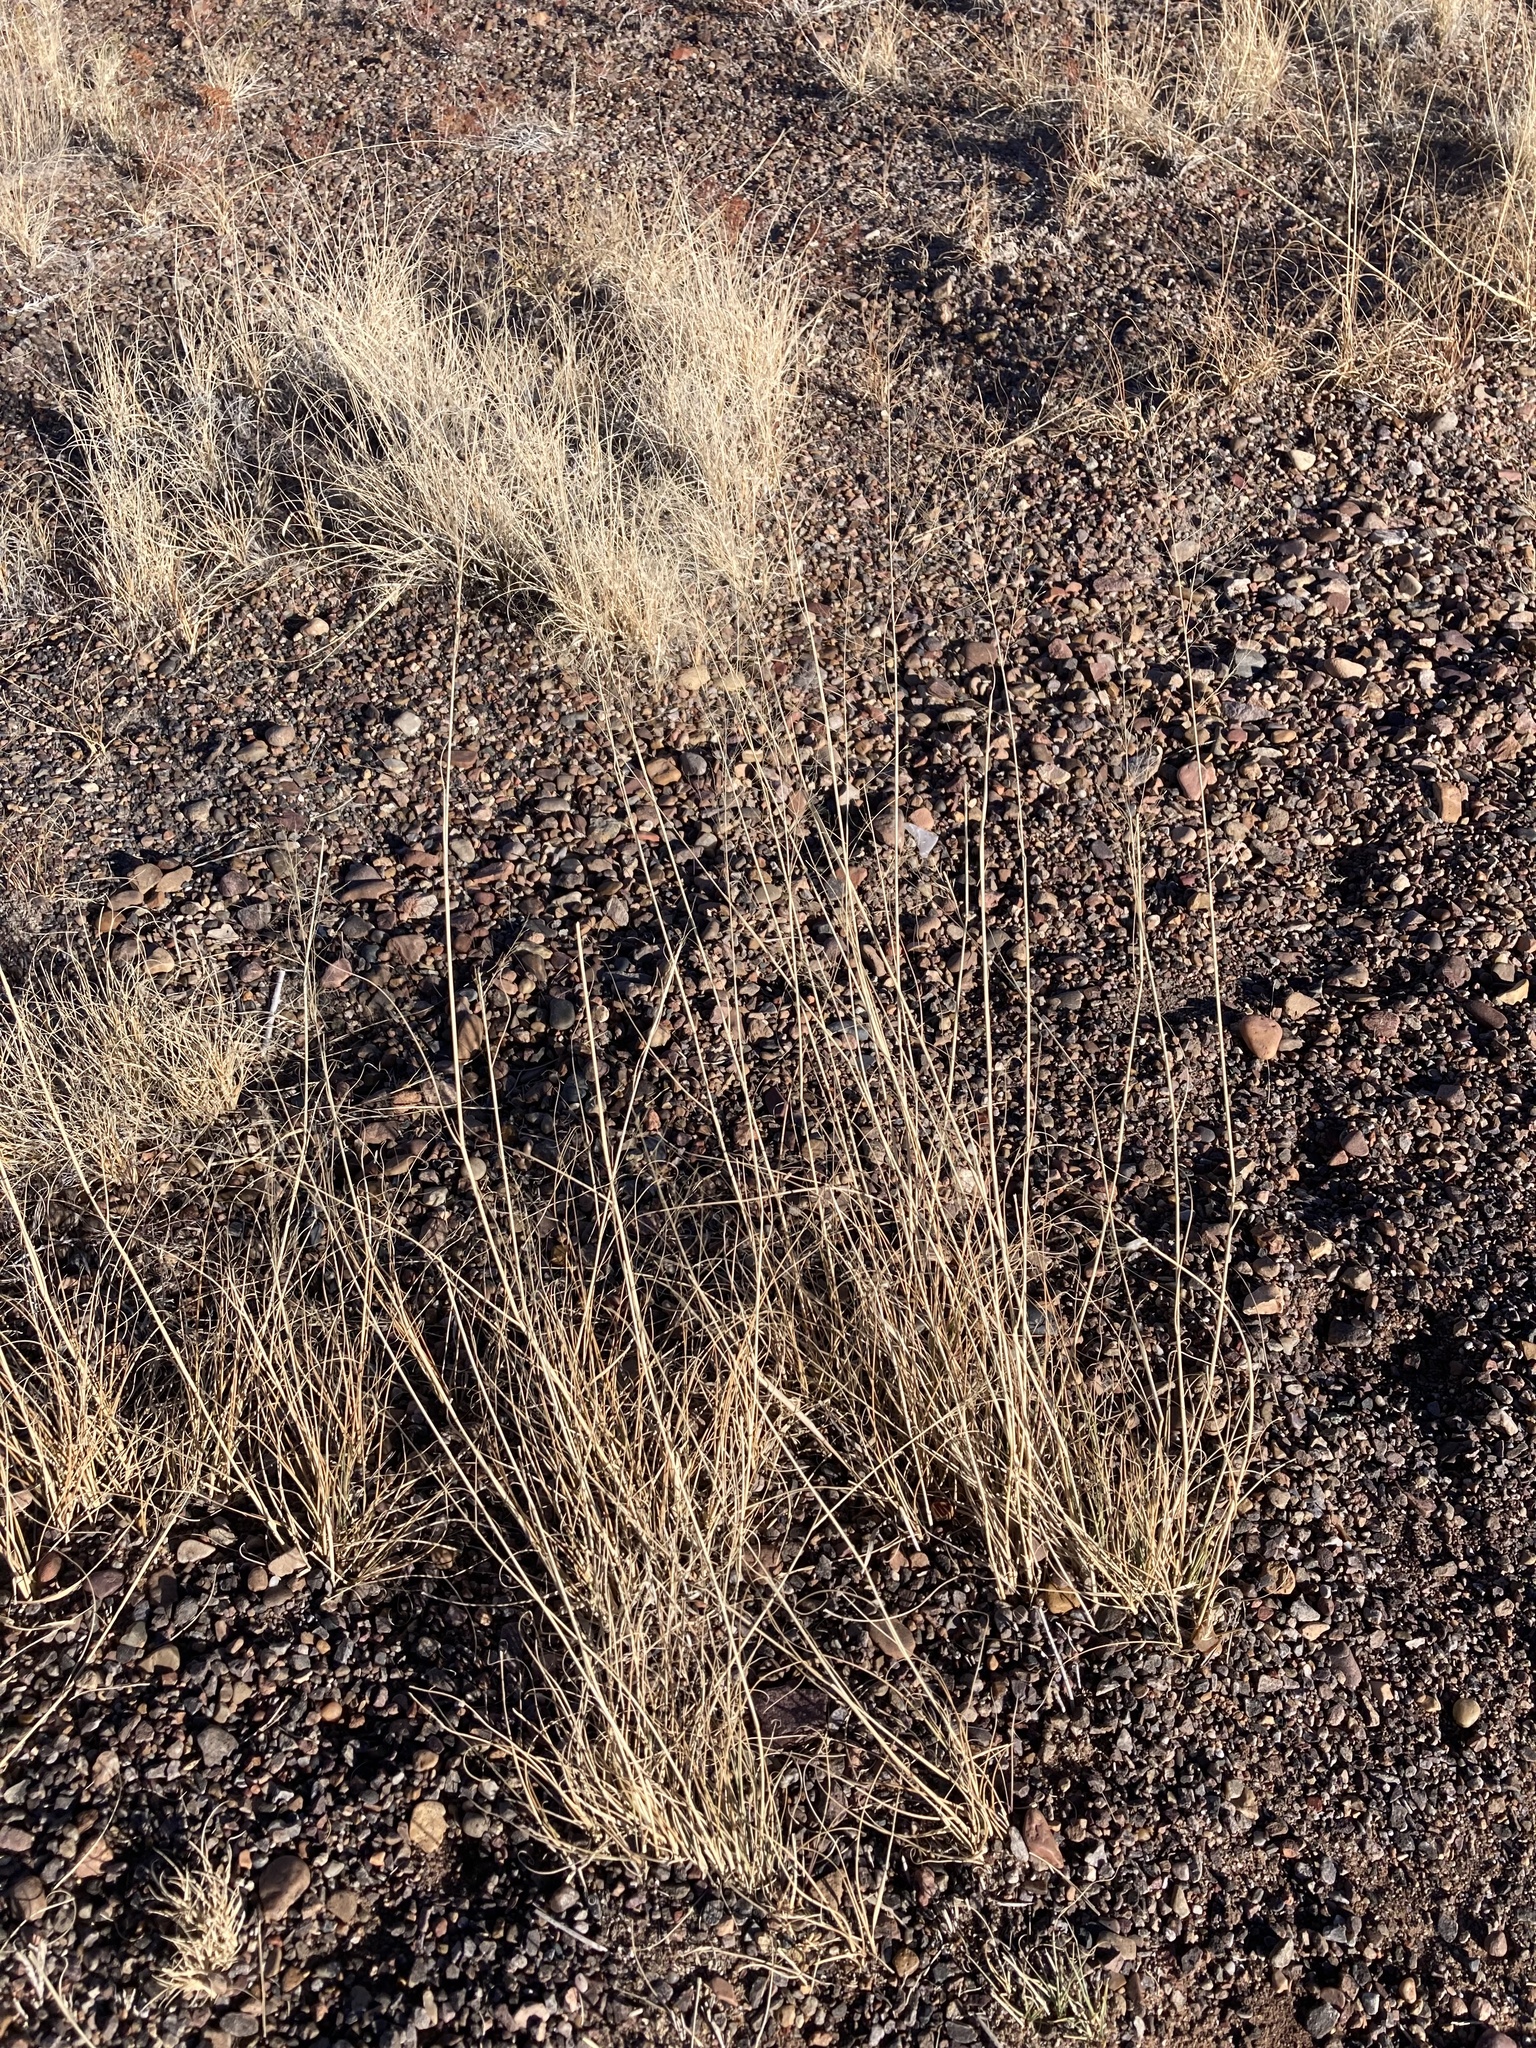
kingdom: Plantae
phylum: Tracheophyta
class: Liliopsida
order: Poales
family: Poaceae
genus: Sporobolus
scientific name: Sporobolus airoides
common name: Alkali sacaton
